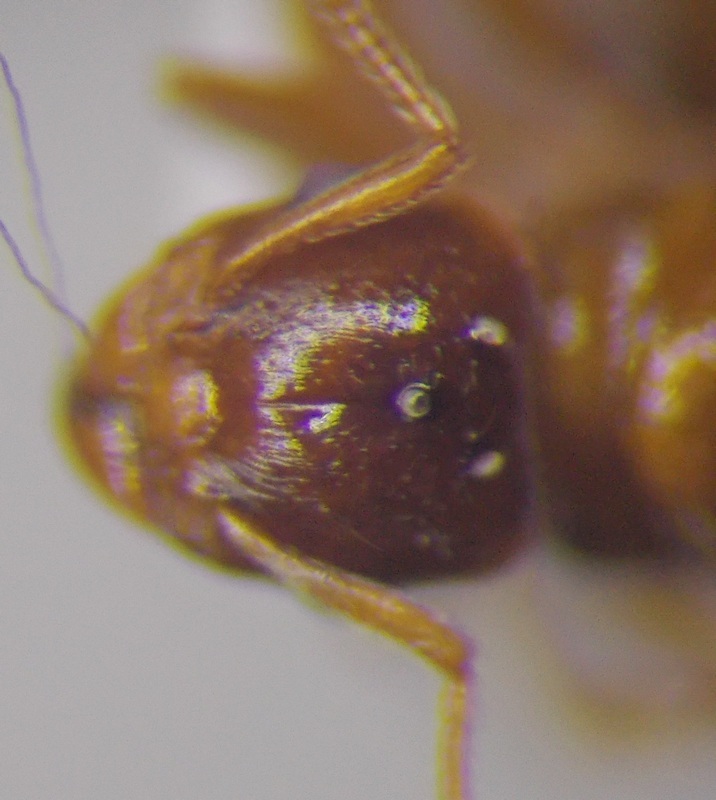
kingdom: Animalia
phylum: Arthropoda
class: Insecta
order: Hymenoptera
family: Formicidae
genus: Tetramorium
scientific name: Tetramorium ferox
